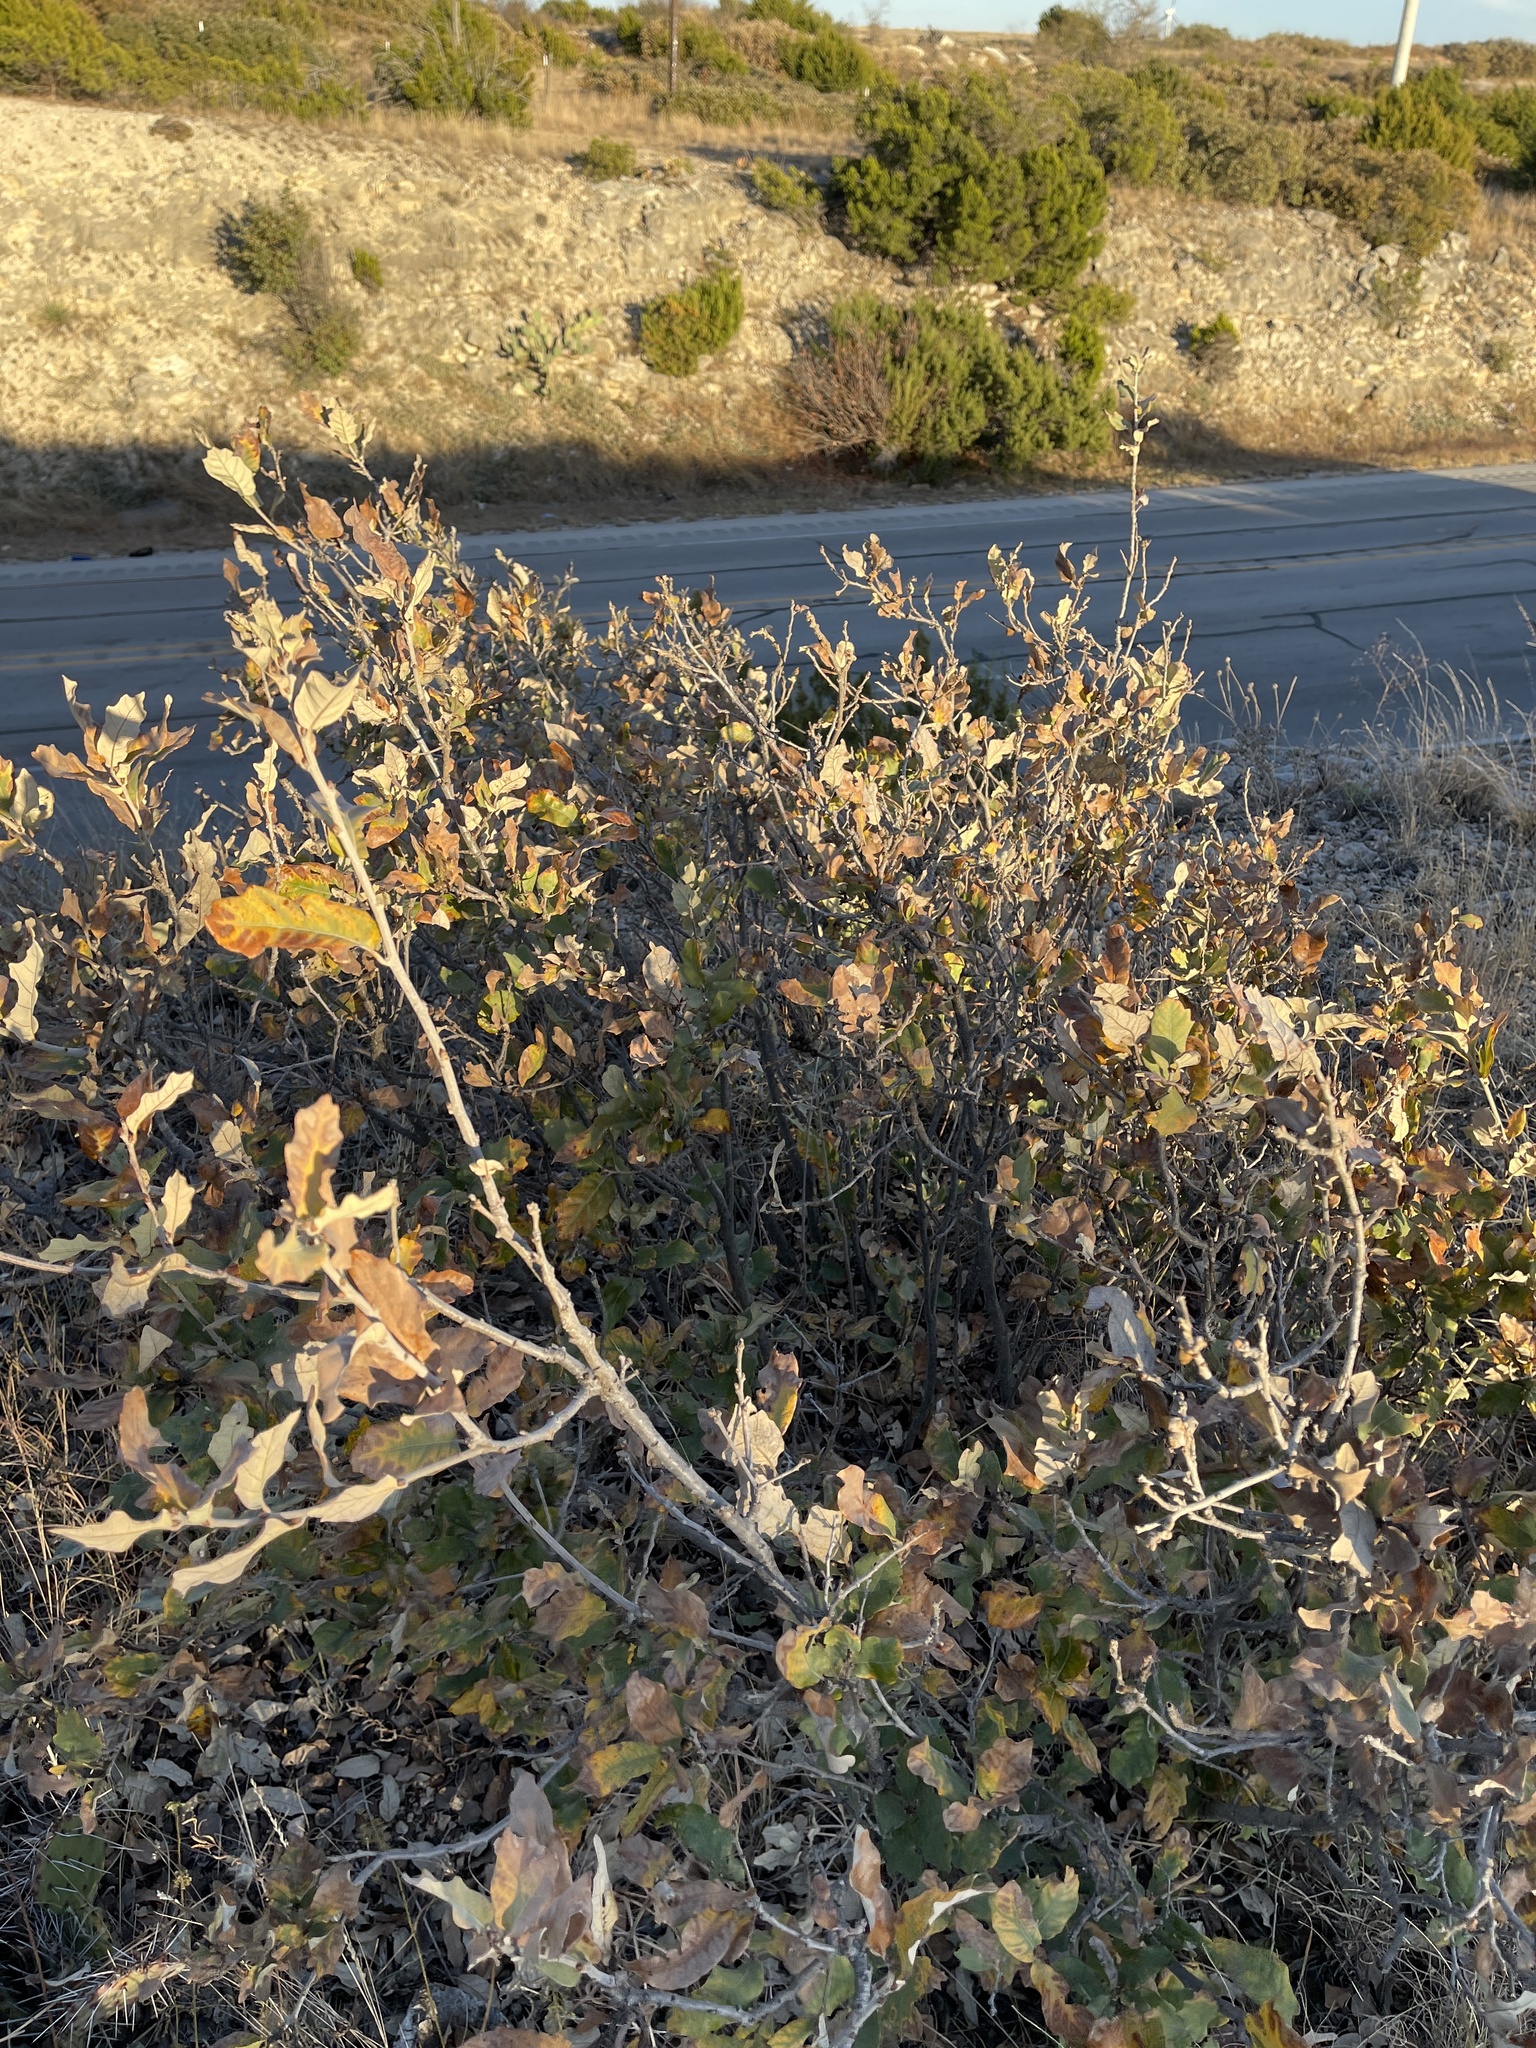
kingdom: Plantae
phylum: Tracheophyta
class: Magnoliopsida
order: Fagales
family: Fagaceae
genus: Quercus
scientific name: Quercus havardii
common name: Shinnery oak
